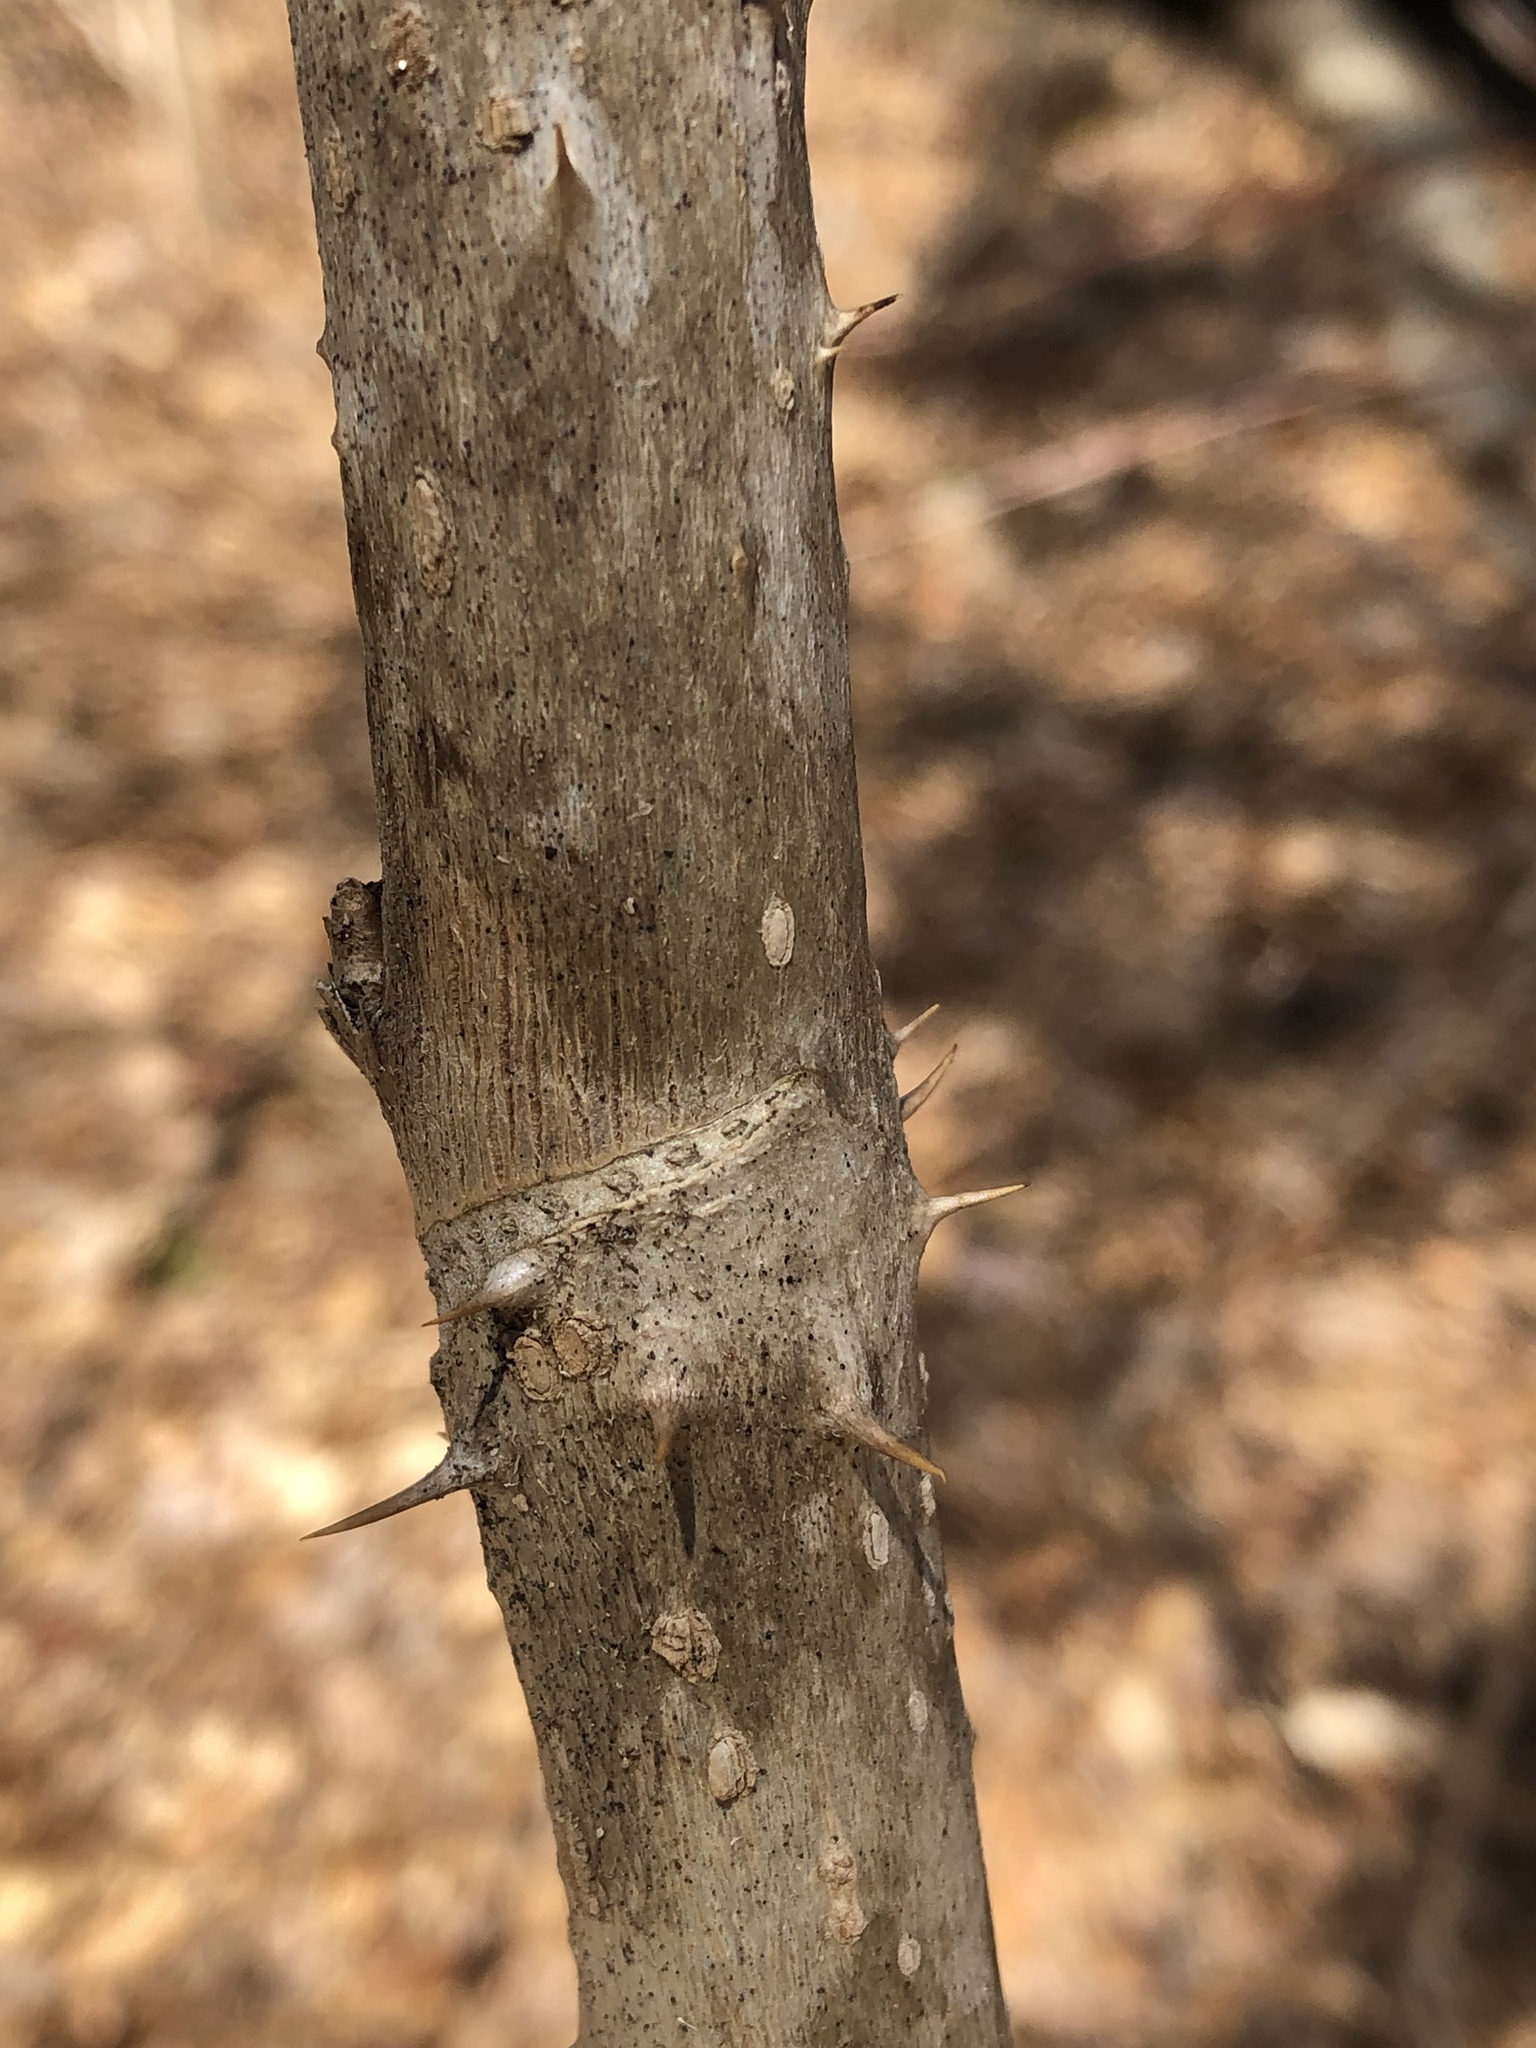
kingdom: Plantae
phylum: Tracheophyta
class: Magnoliopsida
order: Apiales
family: Araliaceae
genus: Aralia
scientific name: Aralia elata
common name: Japanese angelica-tree
